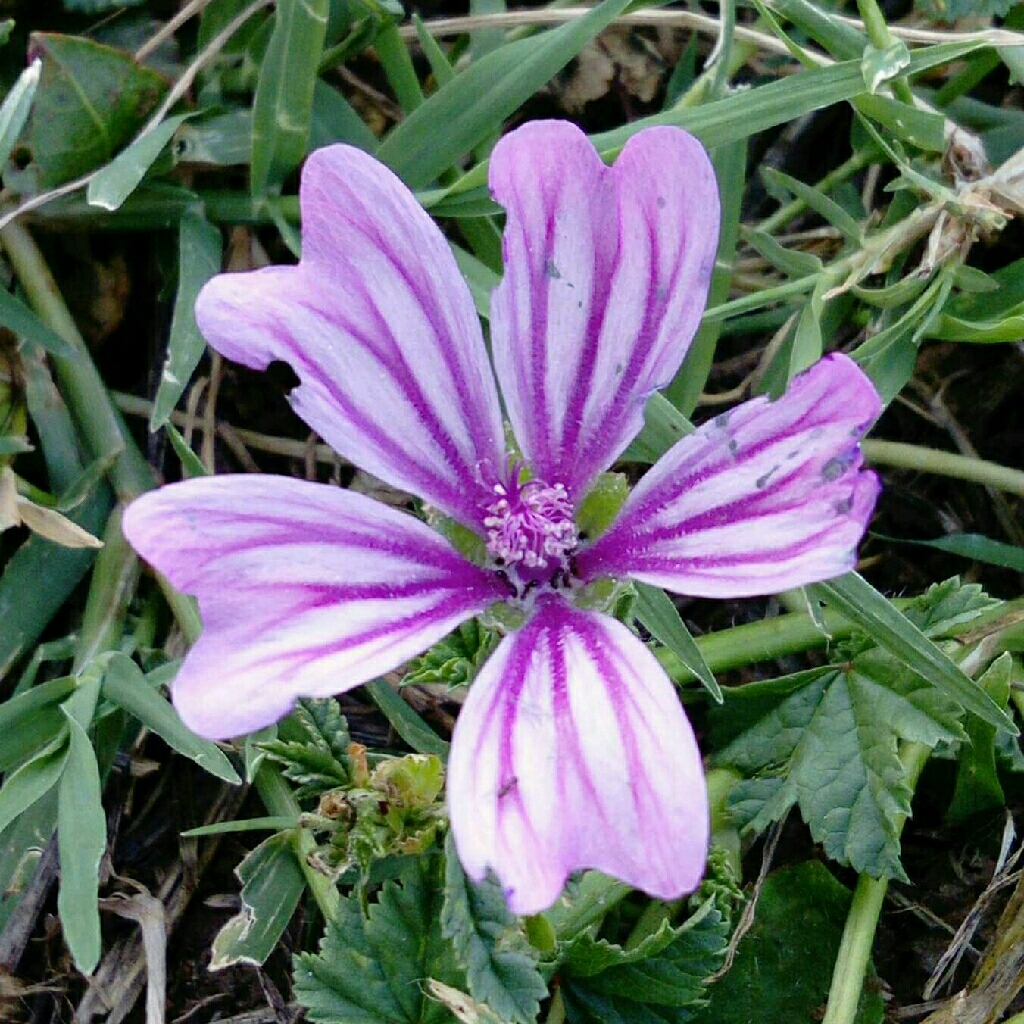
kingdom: Plantae
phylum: Tracheophyta
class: Magnoliopsida
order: Malvales
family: Malvaceae
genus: Malva
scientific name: Malva sylvestris
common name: Common mallow
